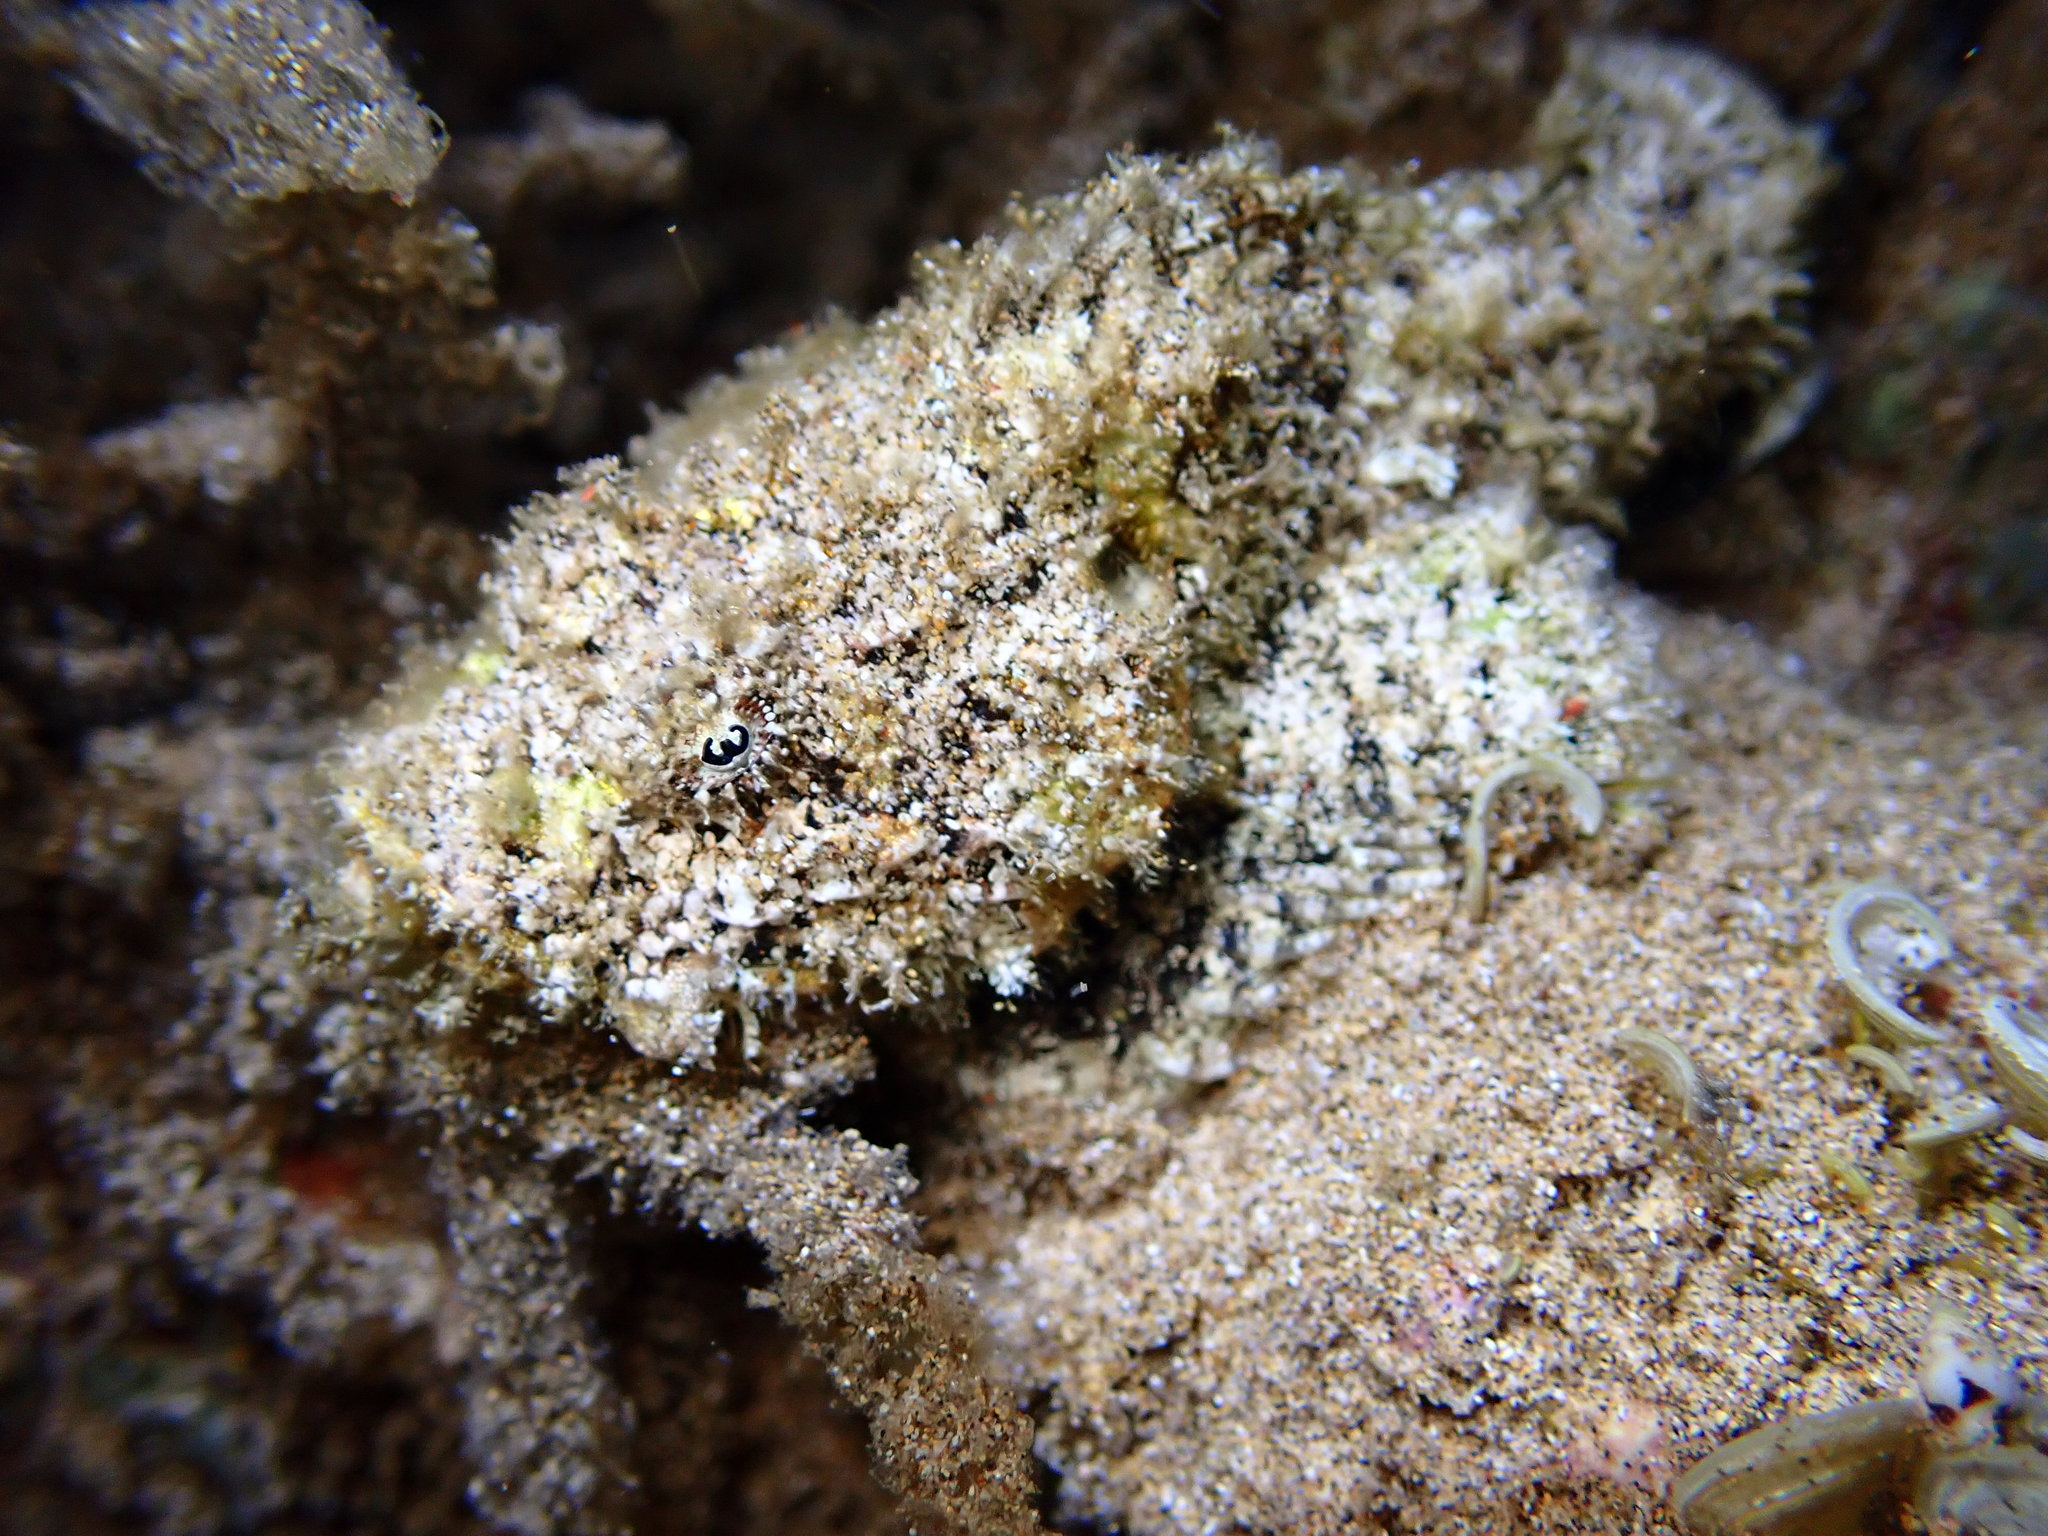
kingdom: Animalia
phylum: Chordata
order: Scorpaeniformes
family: Scorpaenidae
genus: Scorpaenopsis
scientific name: Scorpaenopsis diabolus
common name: False stonefish
